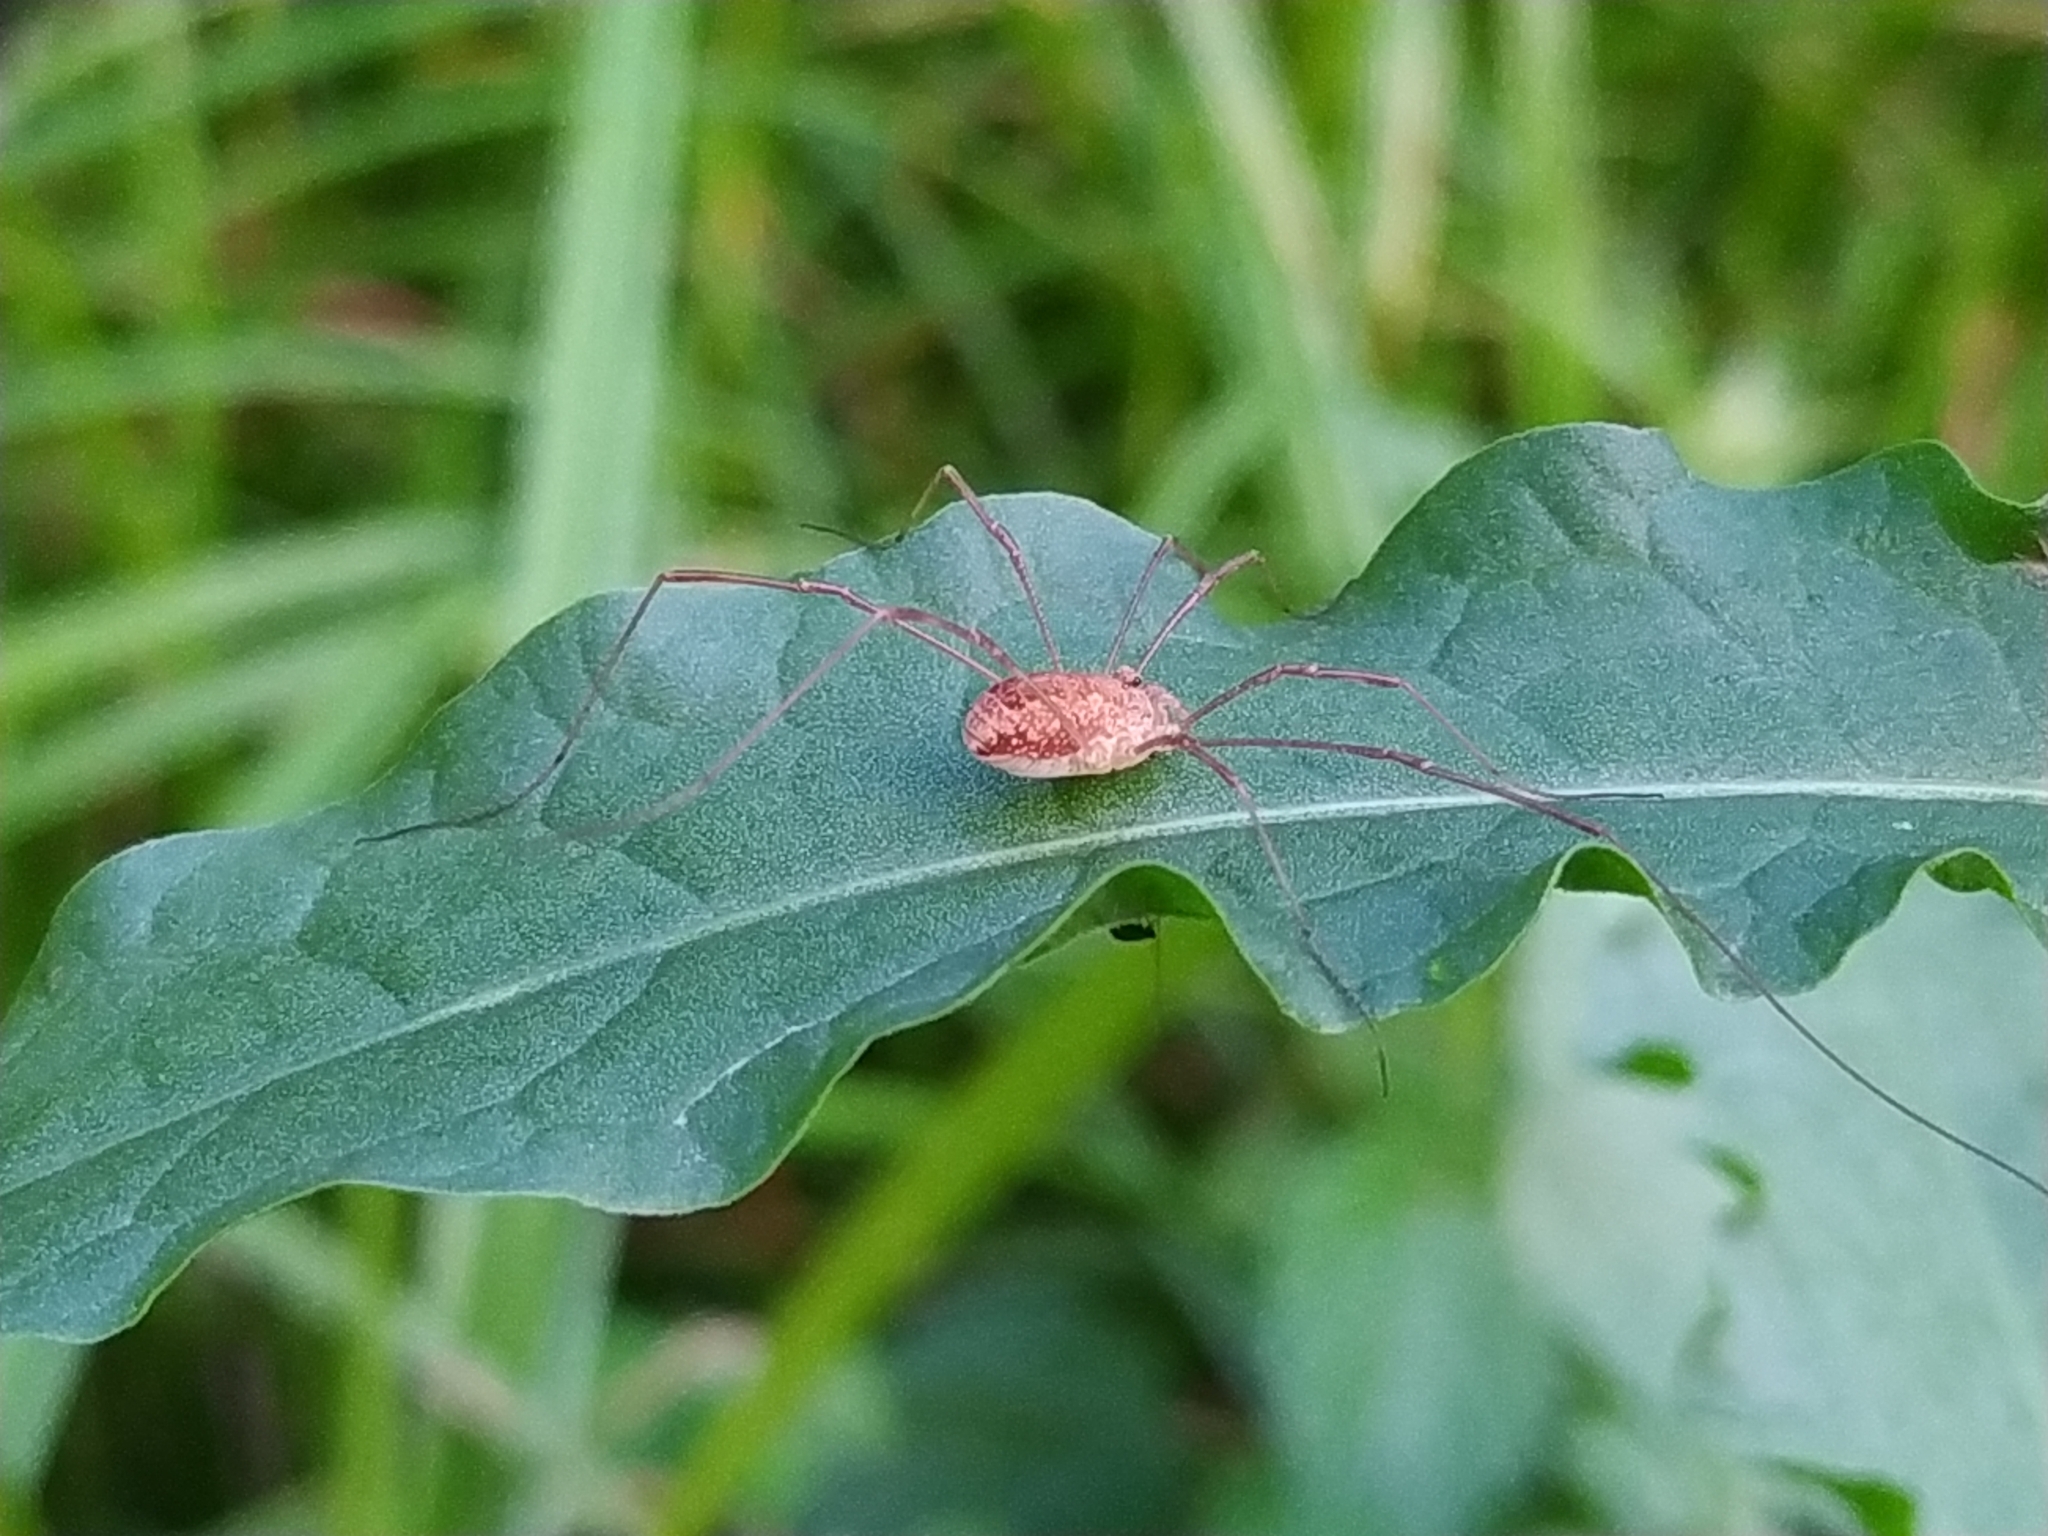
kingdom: Animalia
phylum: Arthropoda
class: Arachnida
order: Opiliones
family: Phalangiidae
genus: Rilaena
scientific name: Rilaena triangularis
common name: Spring harvestman
